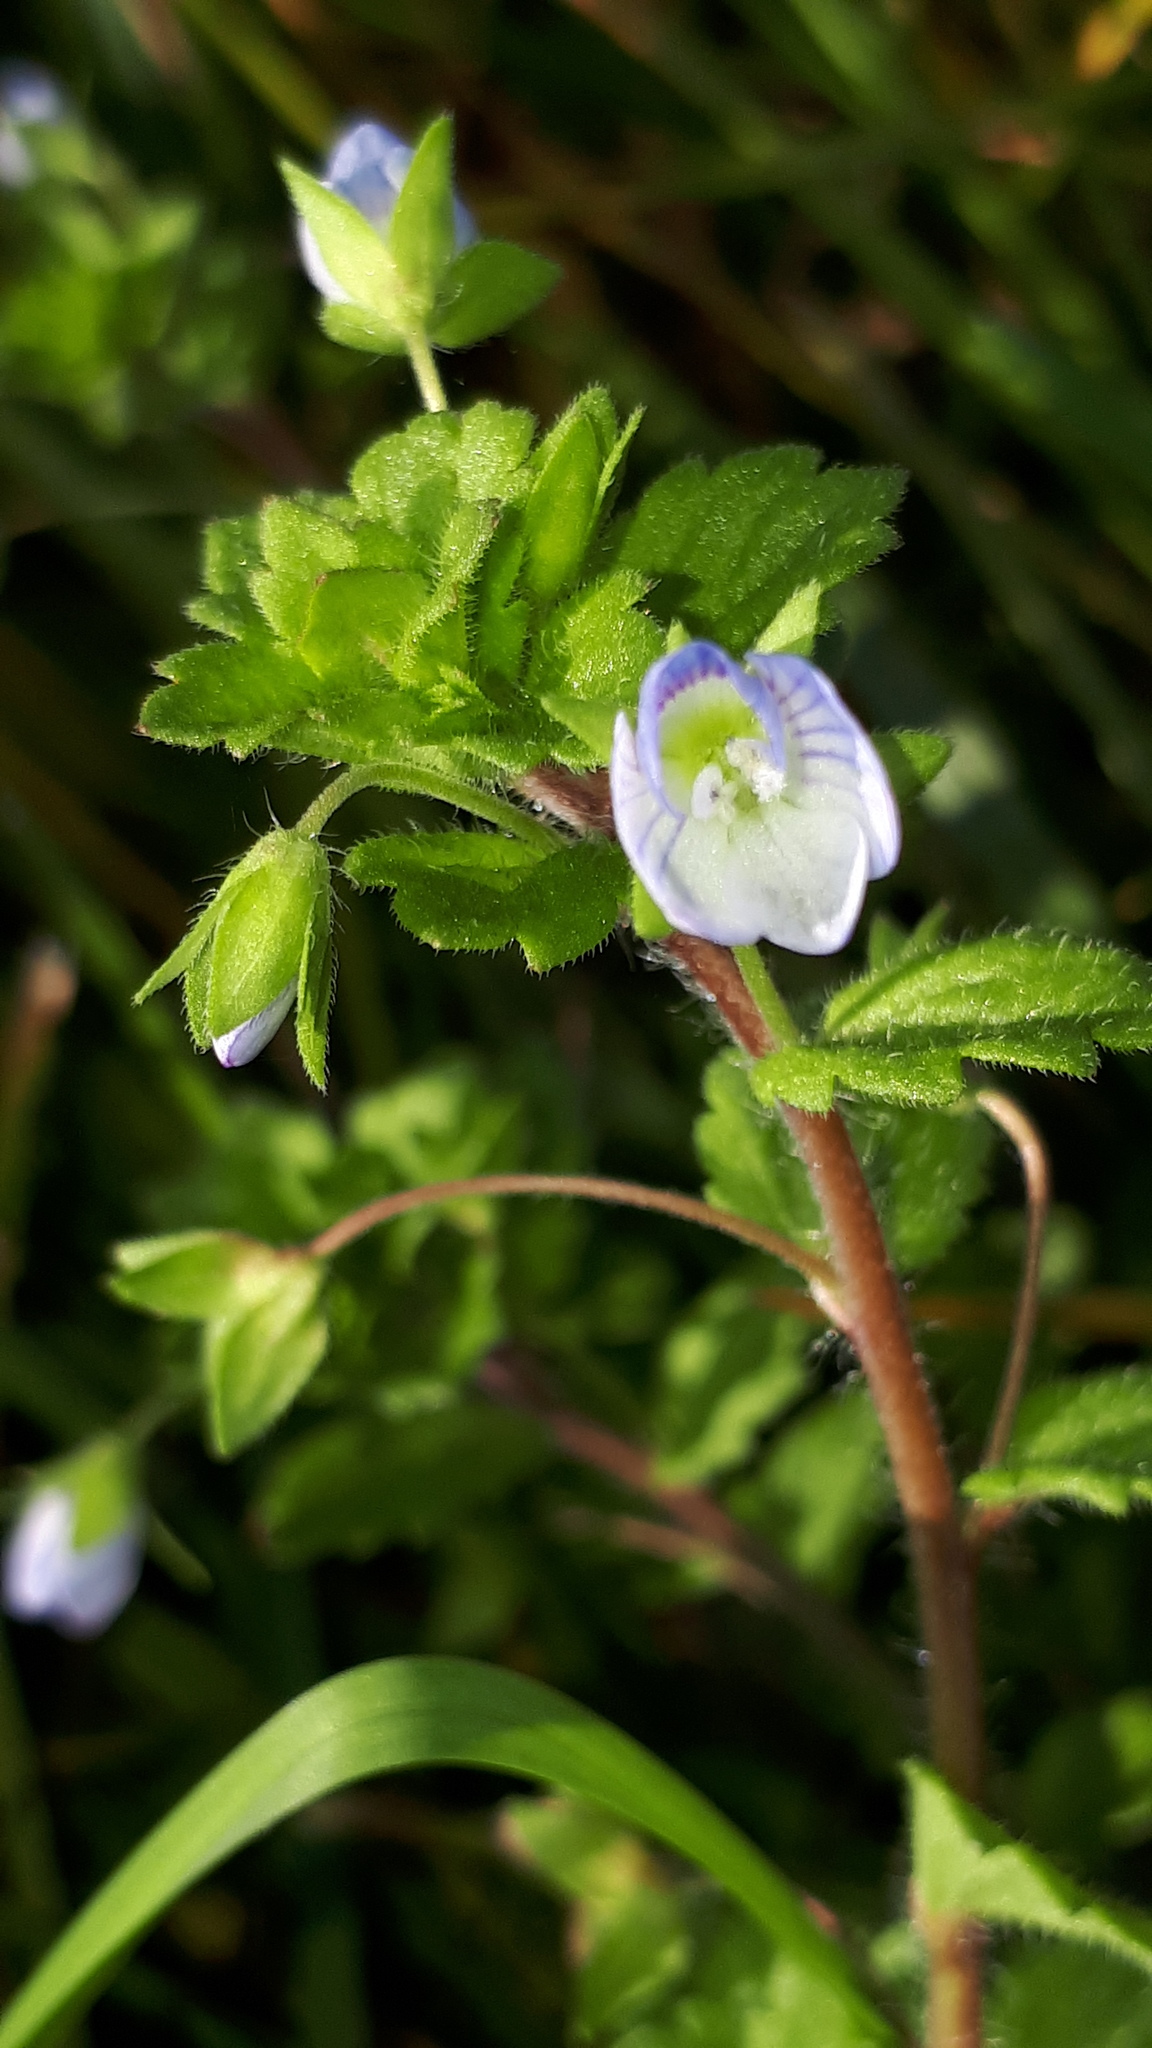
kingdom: Plantae
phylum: Tracheophyta
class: Magnoliopsida
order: Lamiales
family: Plantaginaceae
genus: Veronica
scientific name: Veronica persica
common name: Common field-speedwell
